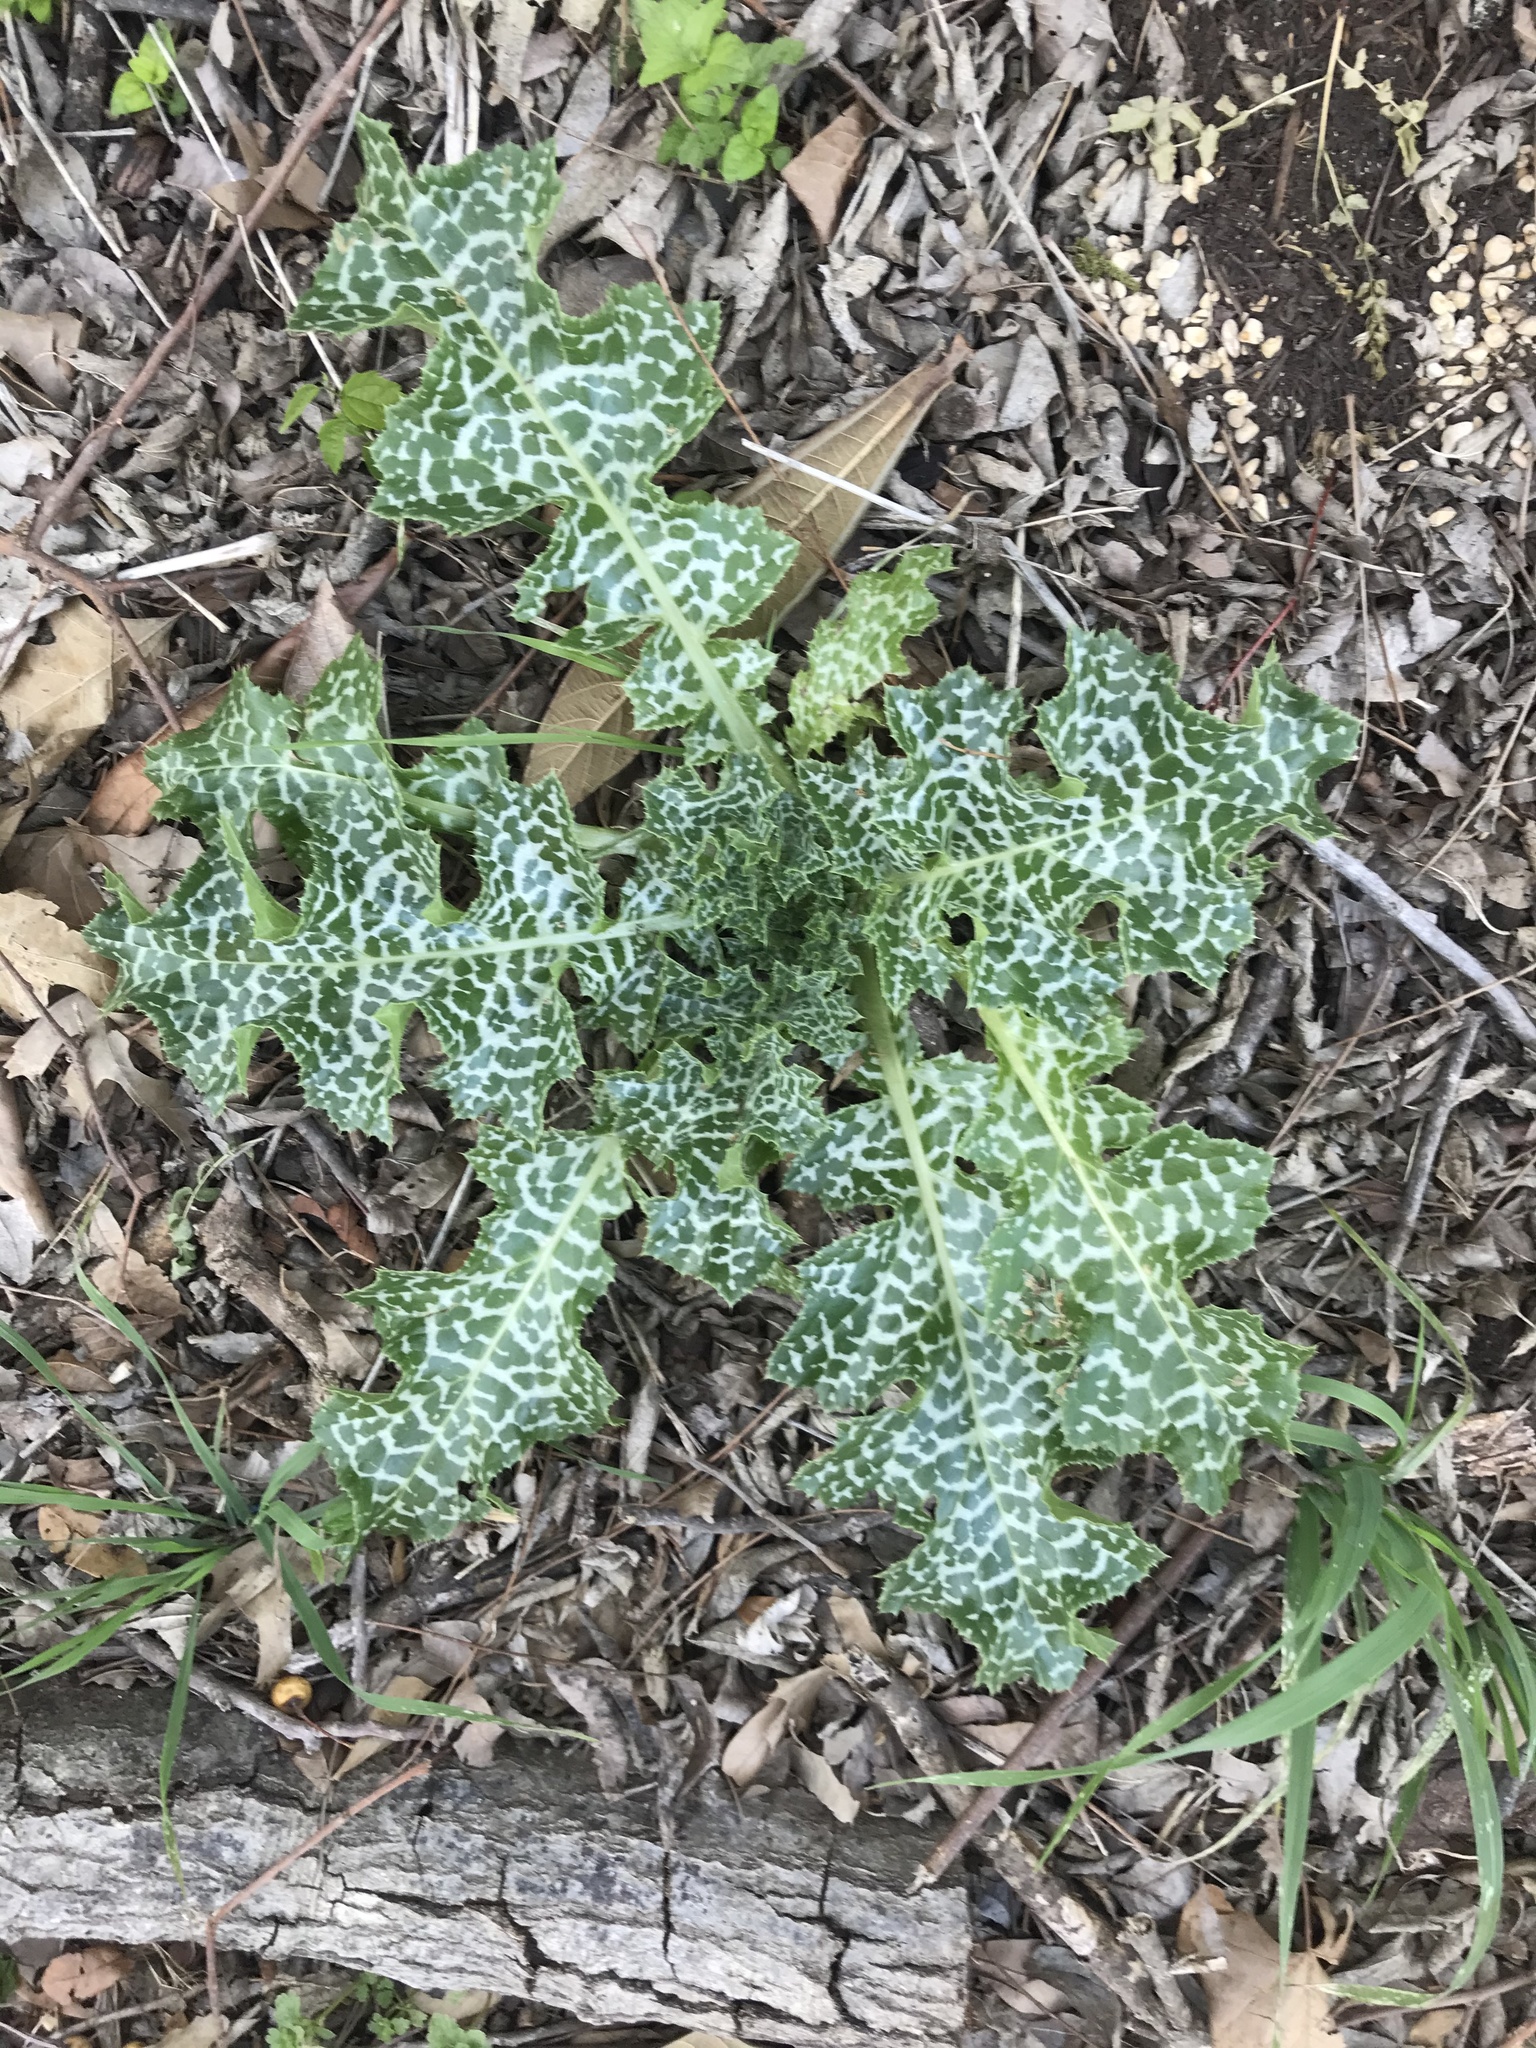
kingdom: Plantae
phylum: Tracheophyta
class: Magnoliopsida
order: Asterales
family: Asteraceae
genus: Silybum
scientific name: Silybum marianum
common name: Milk thistle
